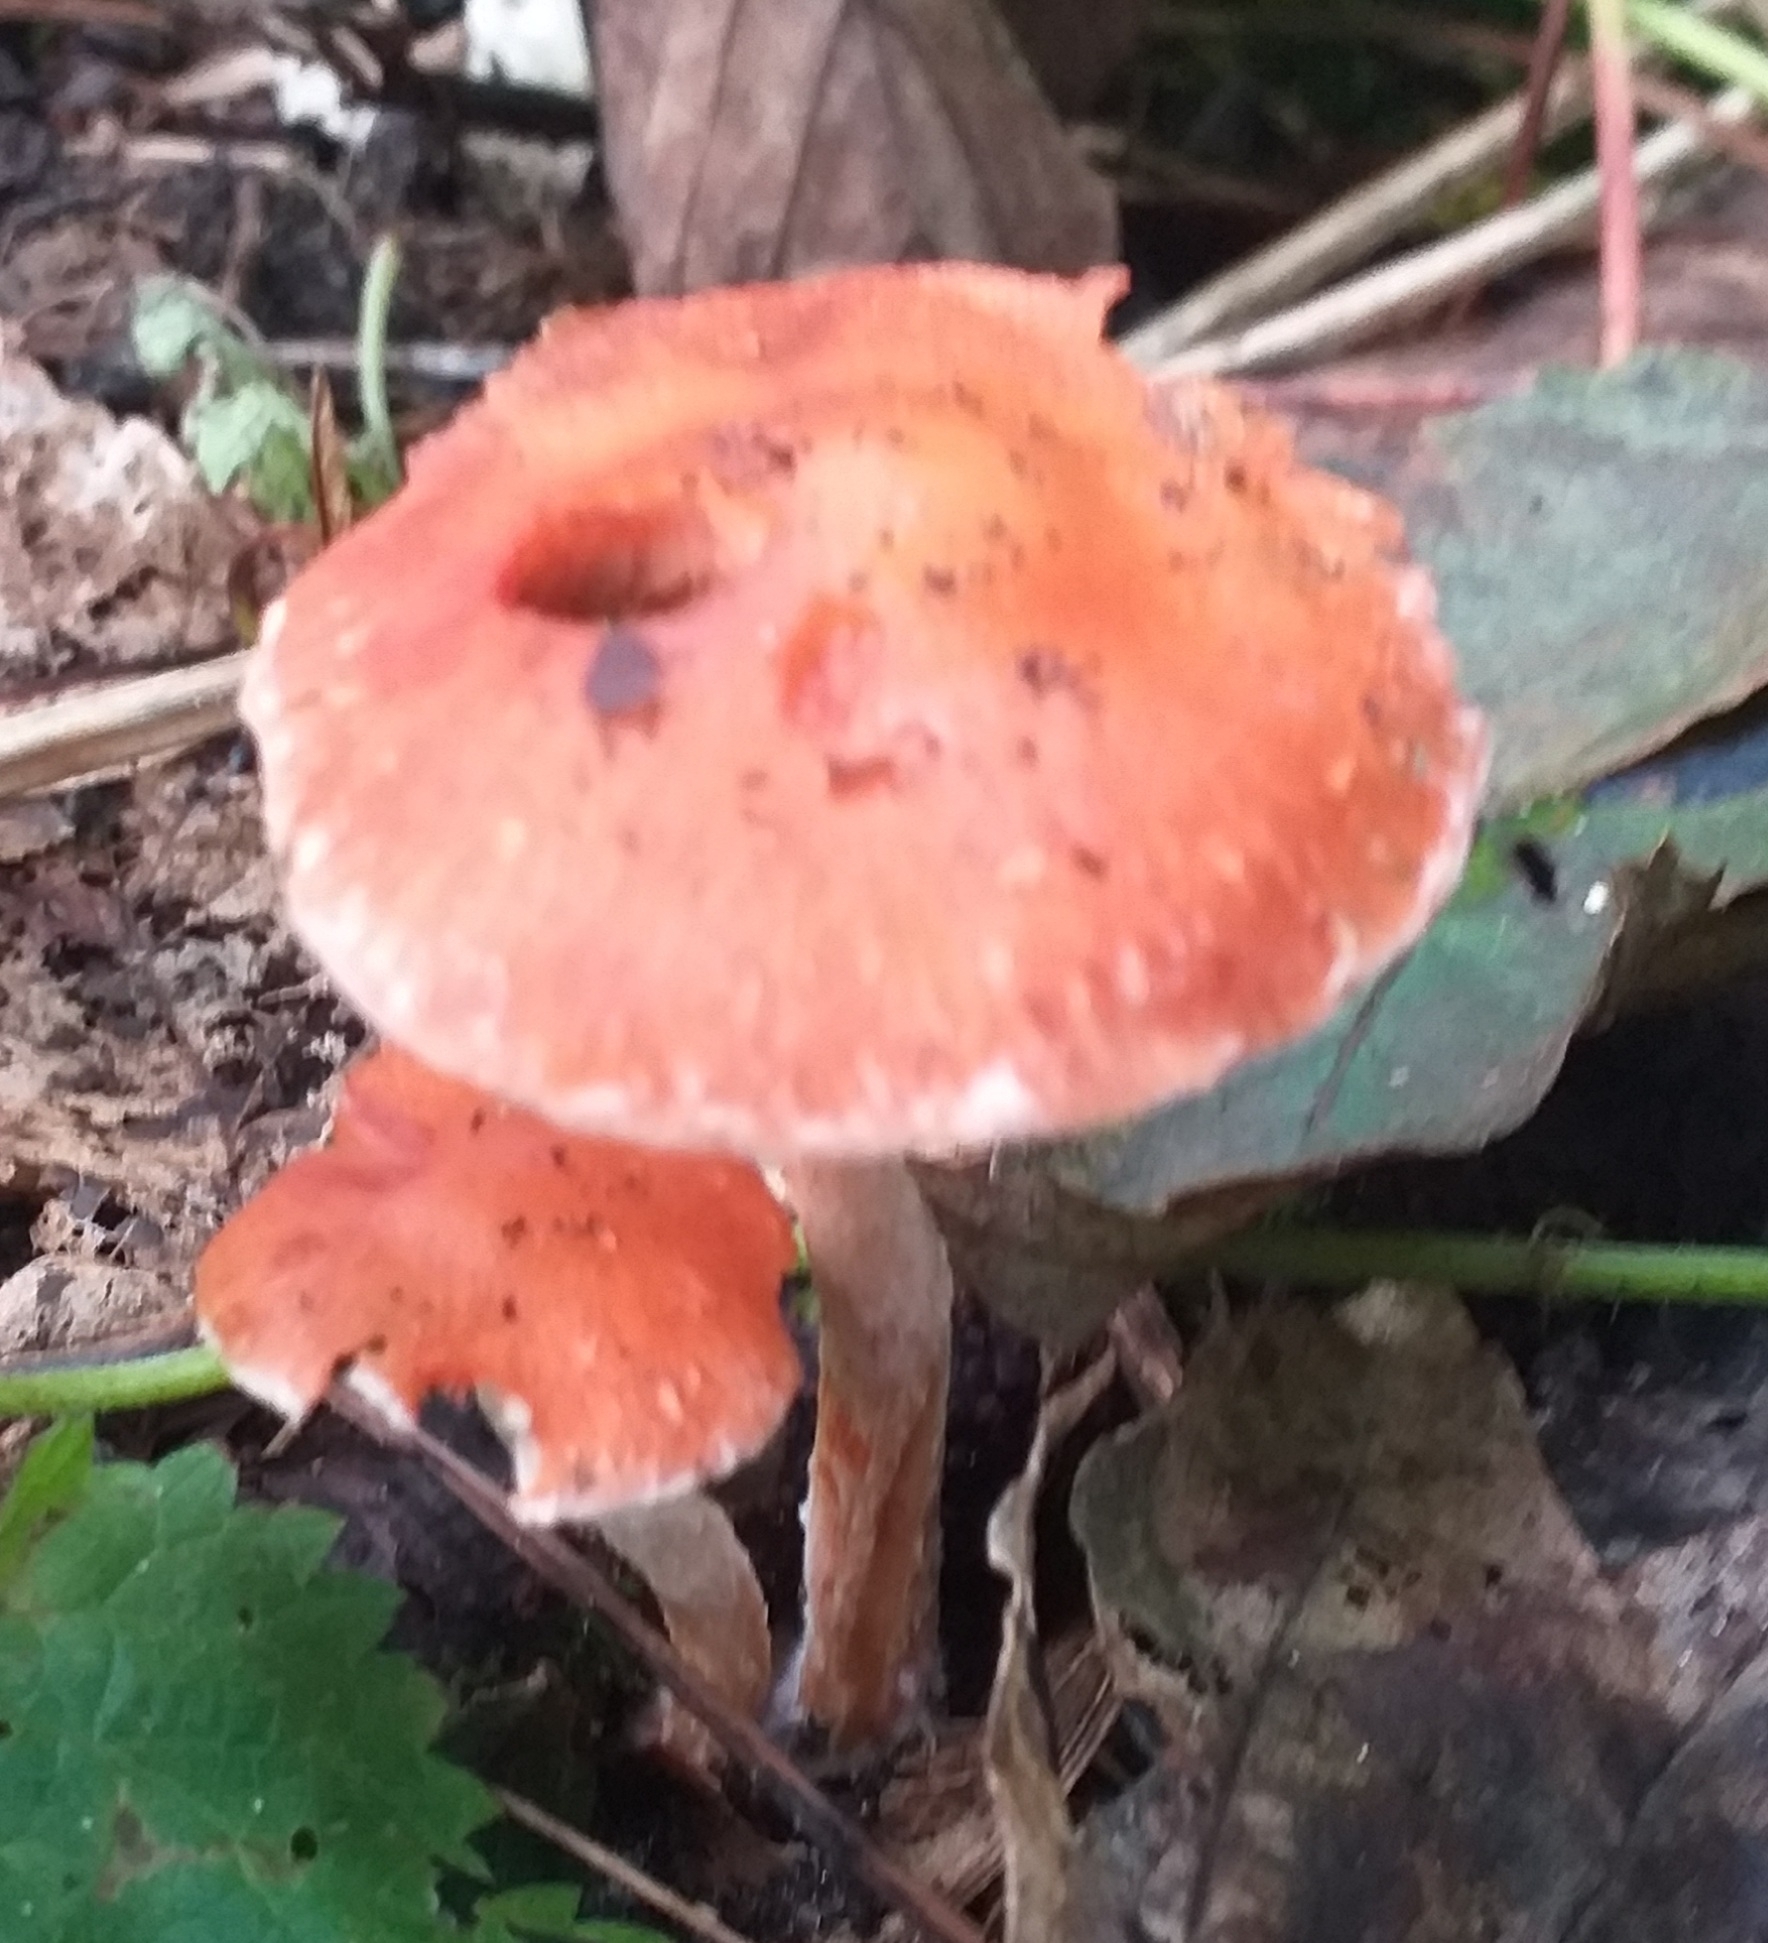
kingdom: Fungi
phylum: Basidiomycota
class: Agaricomycetes
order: Agaricales
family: Strophariaceae
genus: Leratiomyces
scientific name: Leratiomyces ceres
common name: Redlead roundhead
